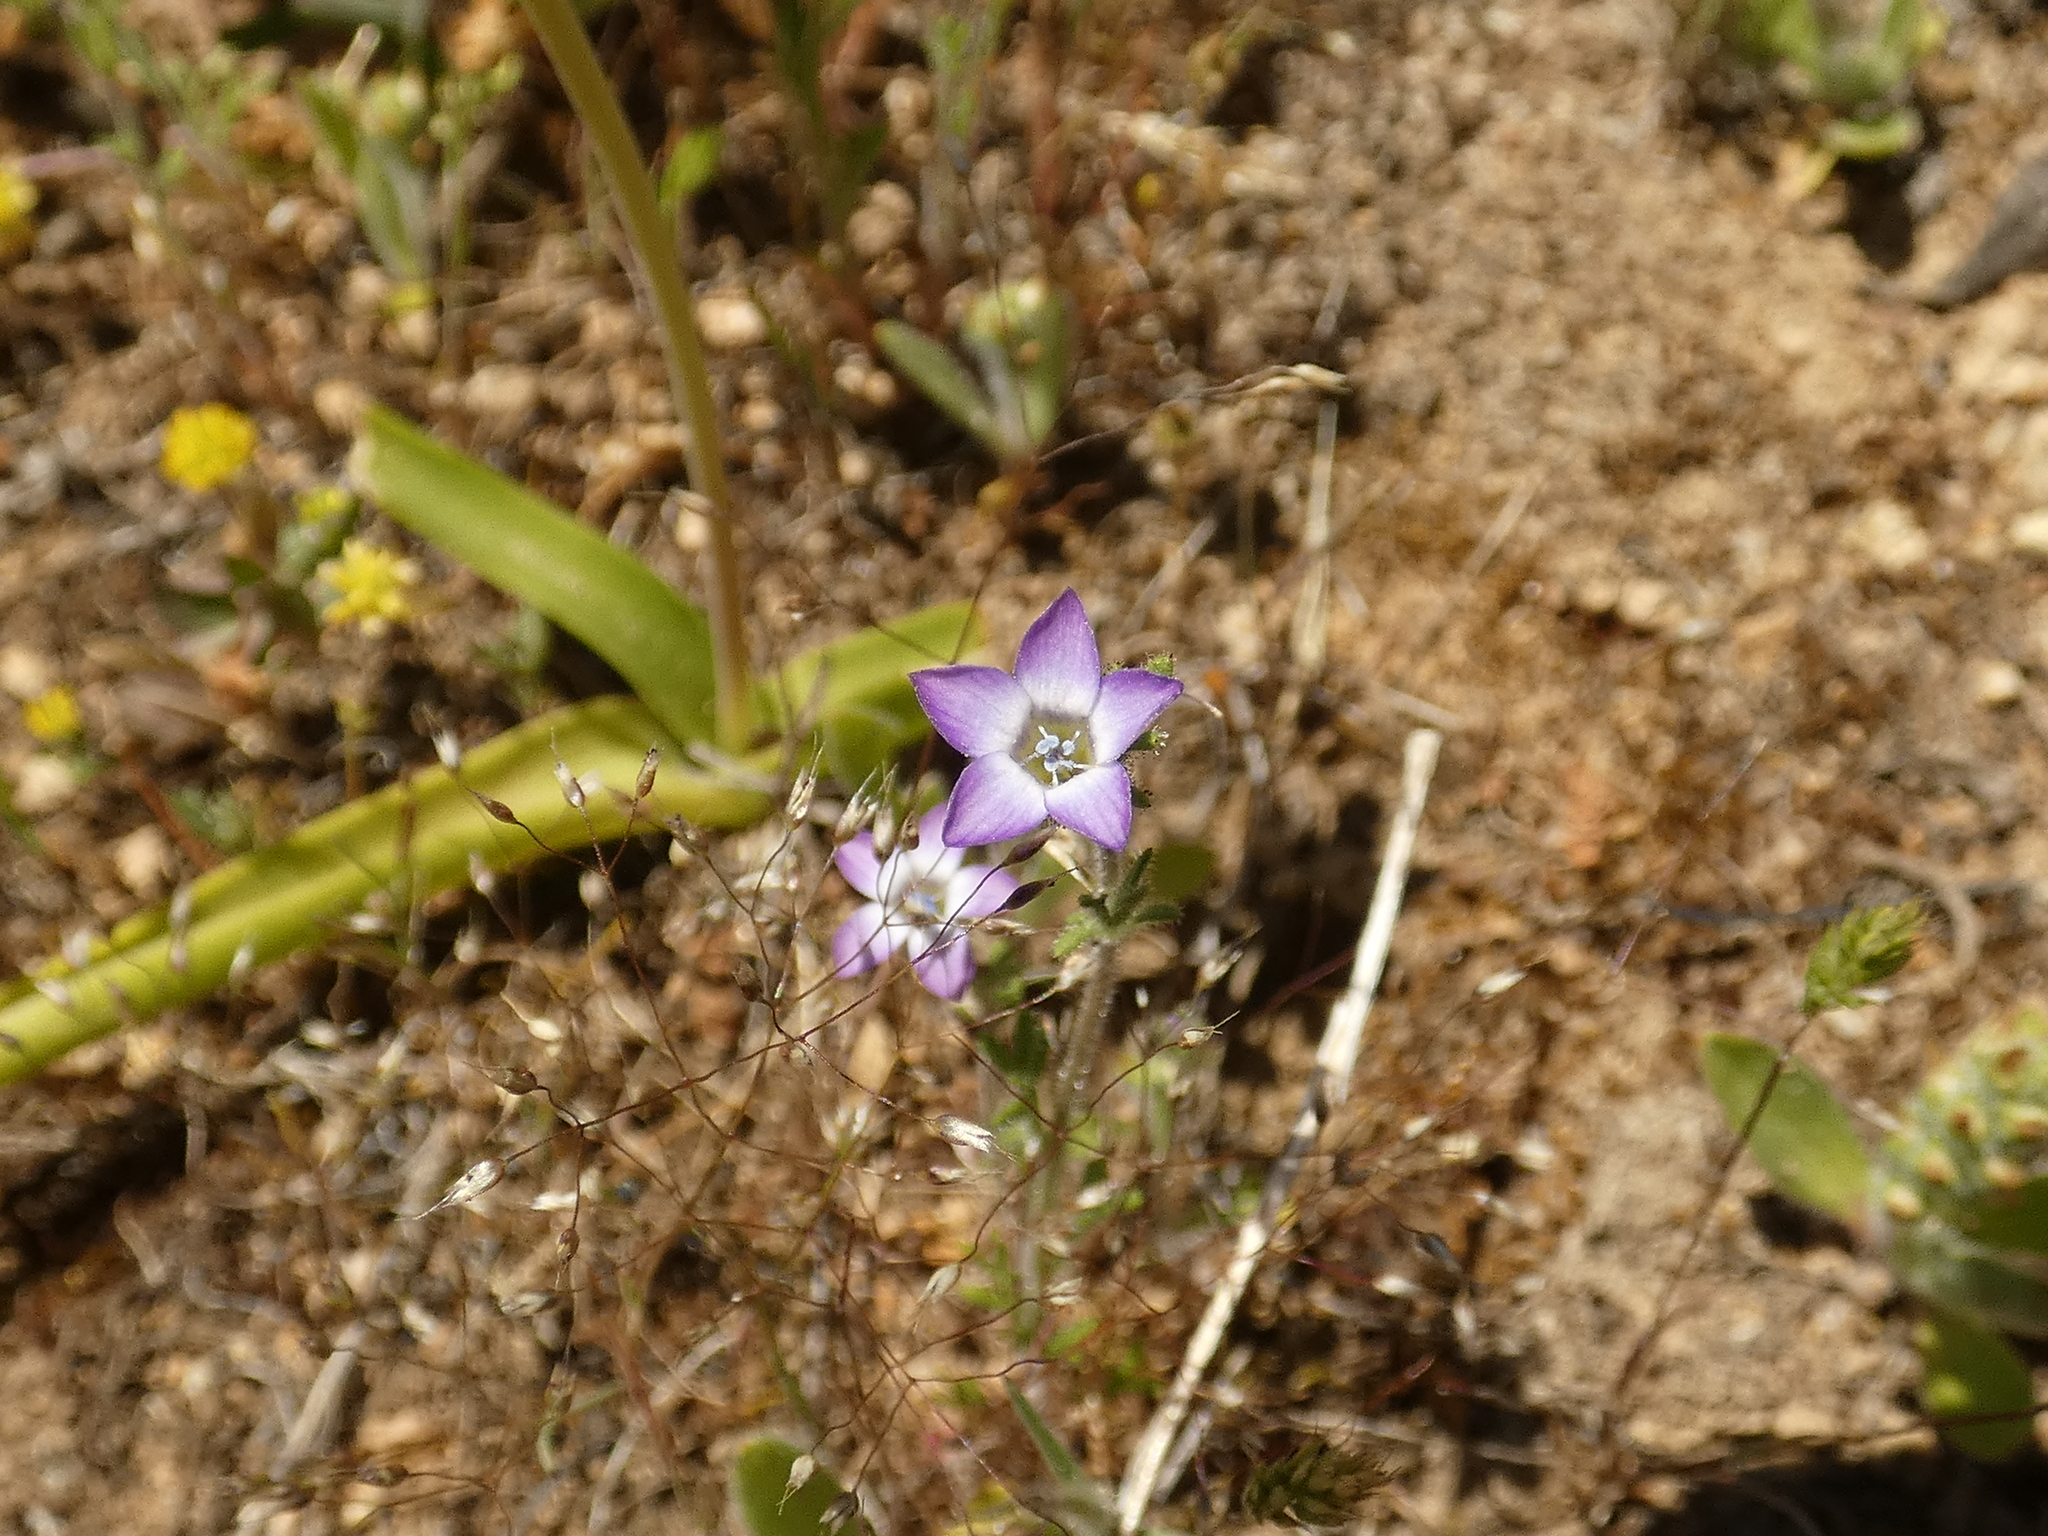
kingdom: Plantae
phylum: Tracheophyta
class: Magnoliopsida
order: Ericales
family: Polemoniaceae
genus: Gilia
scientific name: Gilia laciniata
